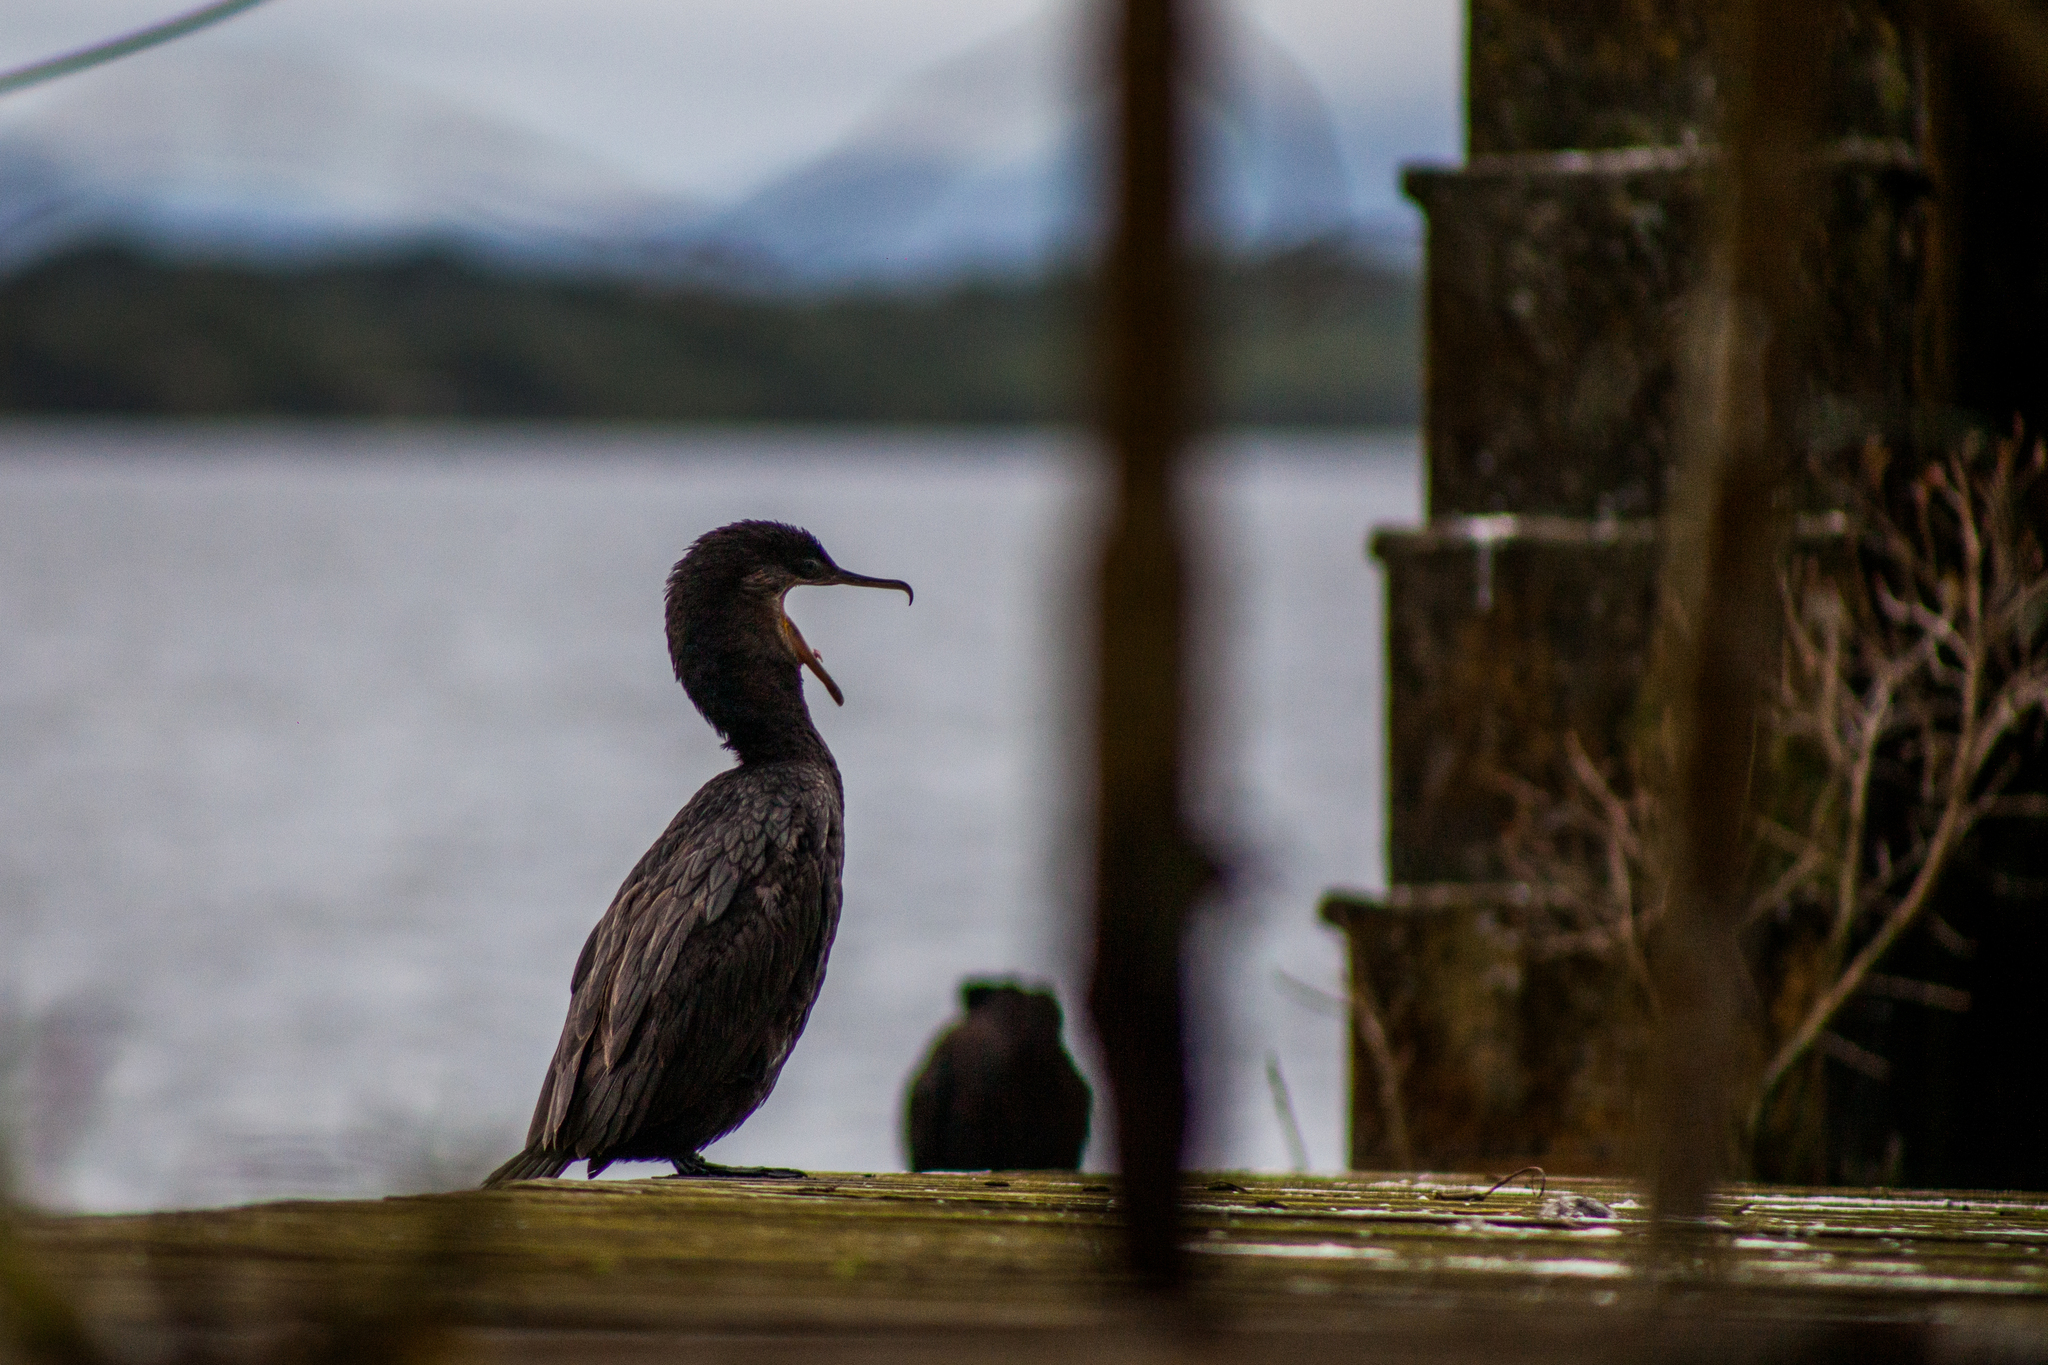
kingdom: Animalia
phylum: Chordata
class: Aves
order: Suliformes
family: Phalacrocoracidae
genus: Phalacrocorax
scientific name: Phalacrocorax brasilianus
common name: Neotropic cormorant
